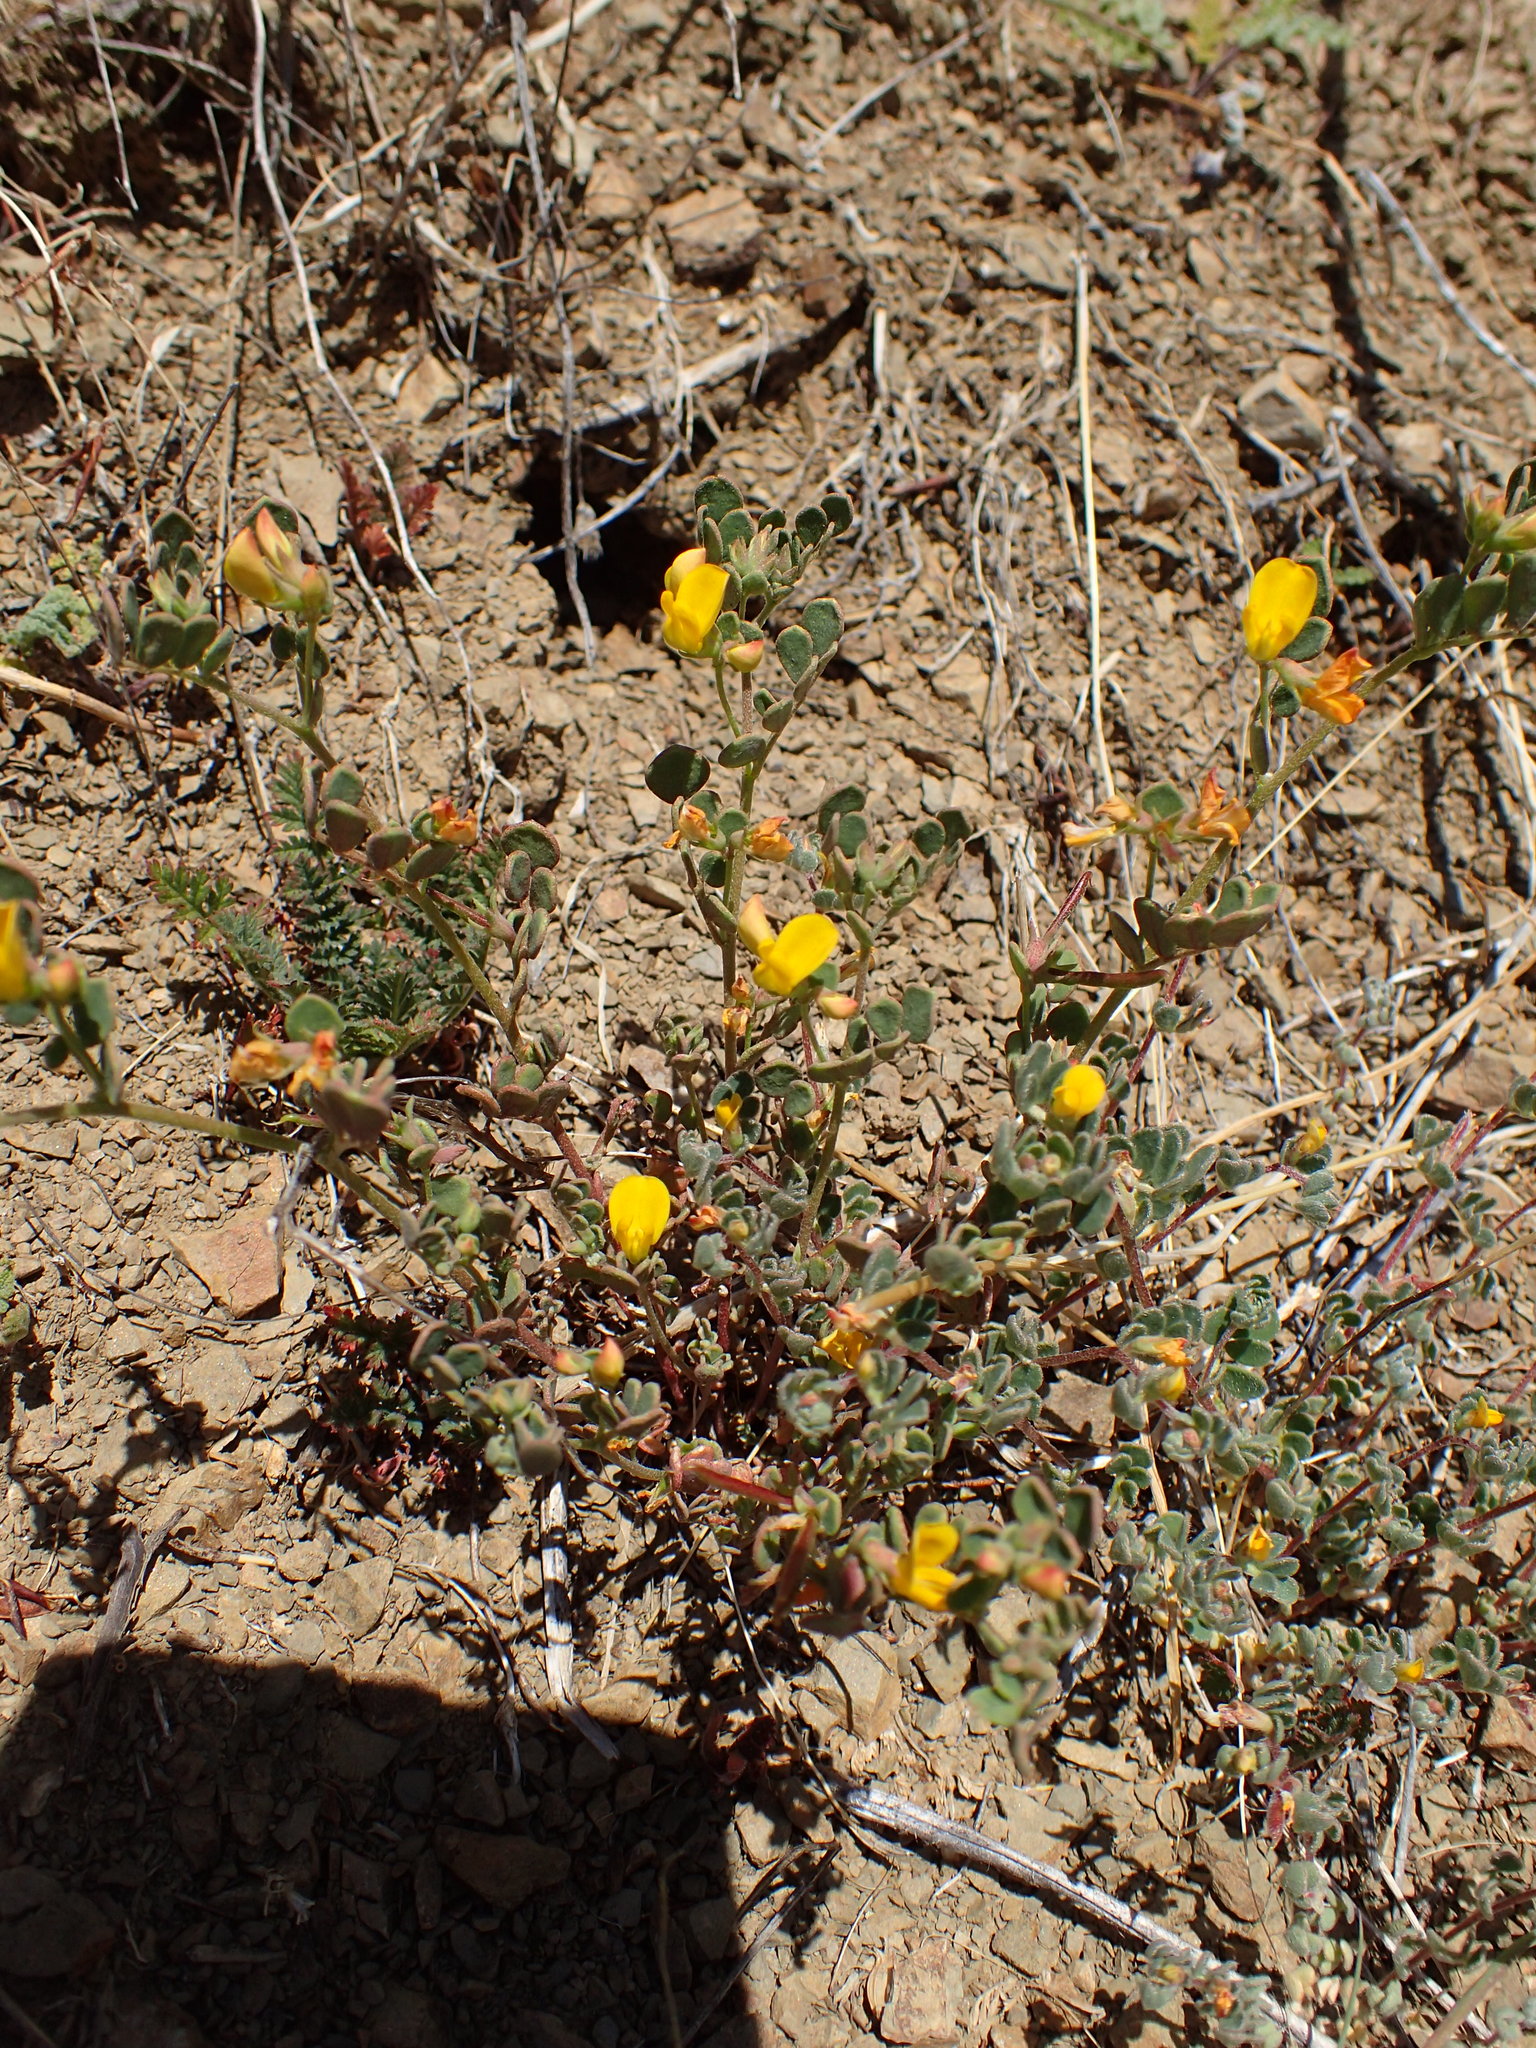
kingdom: Plantae
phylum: Tracheophyta
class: Magnoliopsida
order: Fabales
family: Fabaceae
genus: Acmispon
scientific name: Acmispon maritimus
